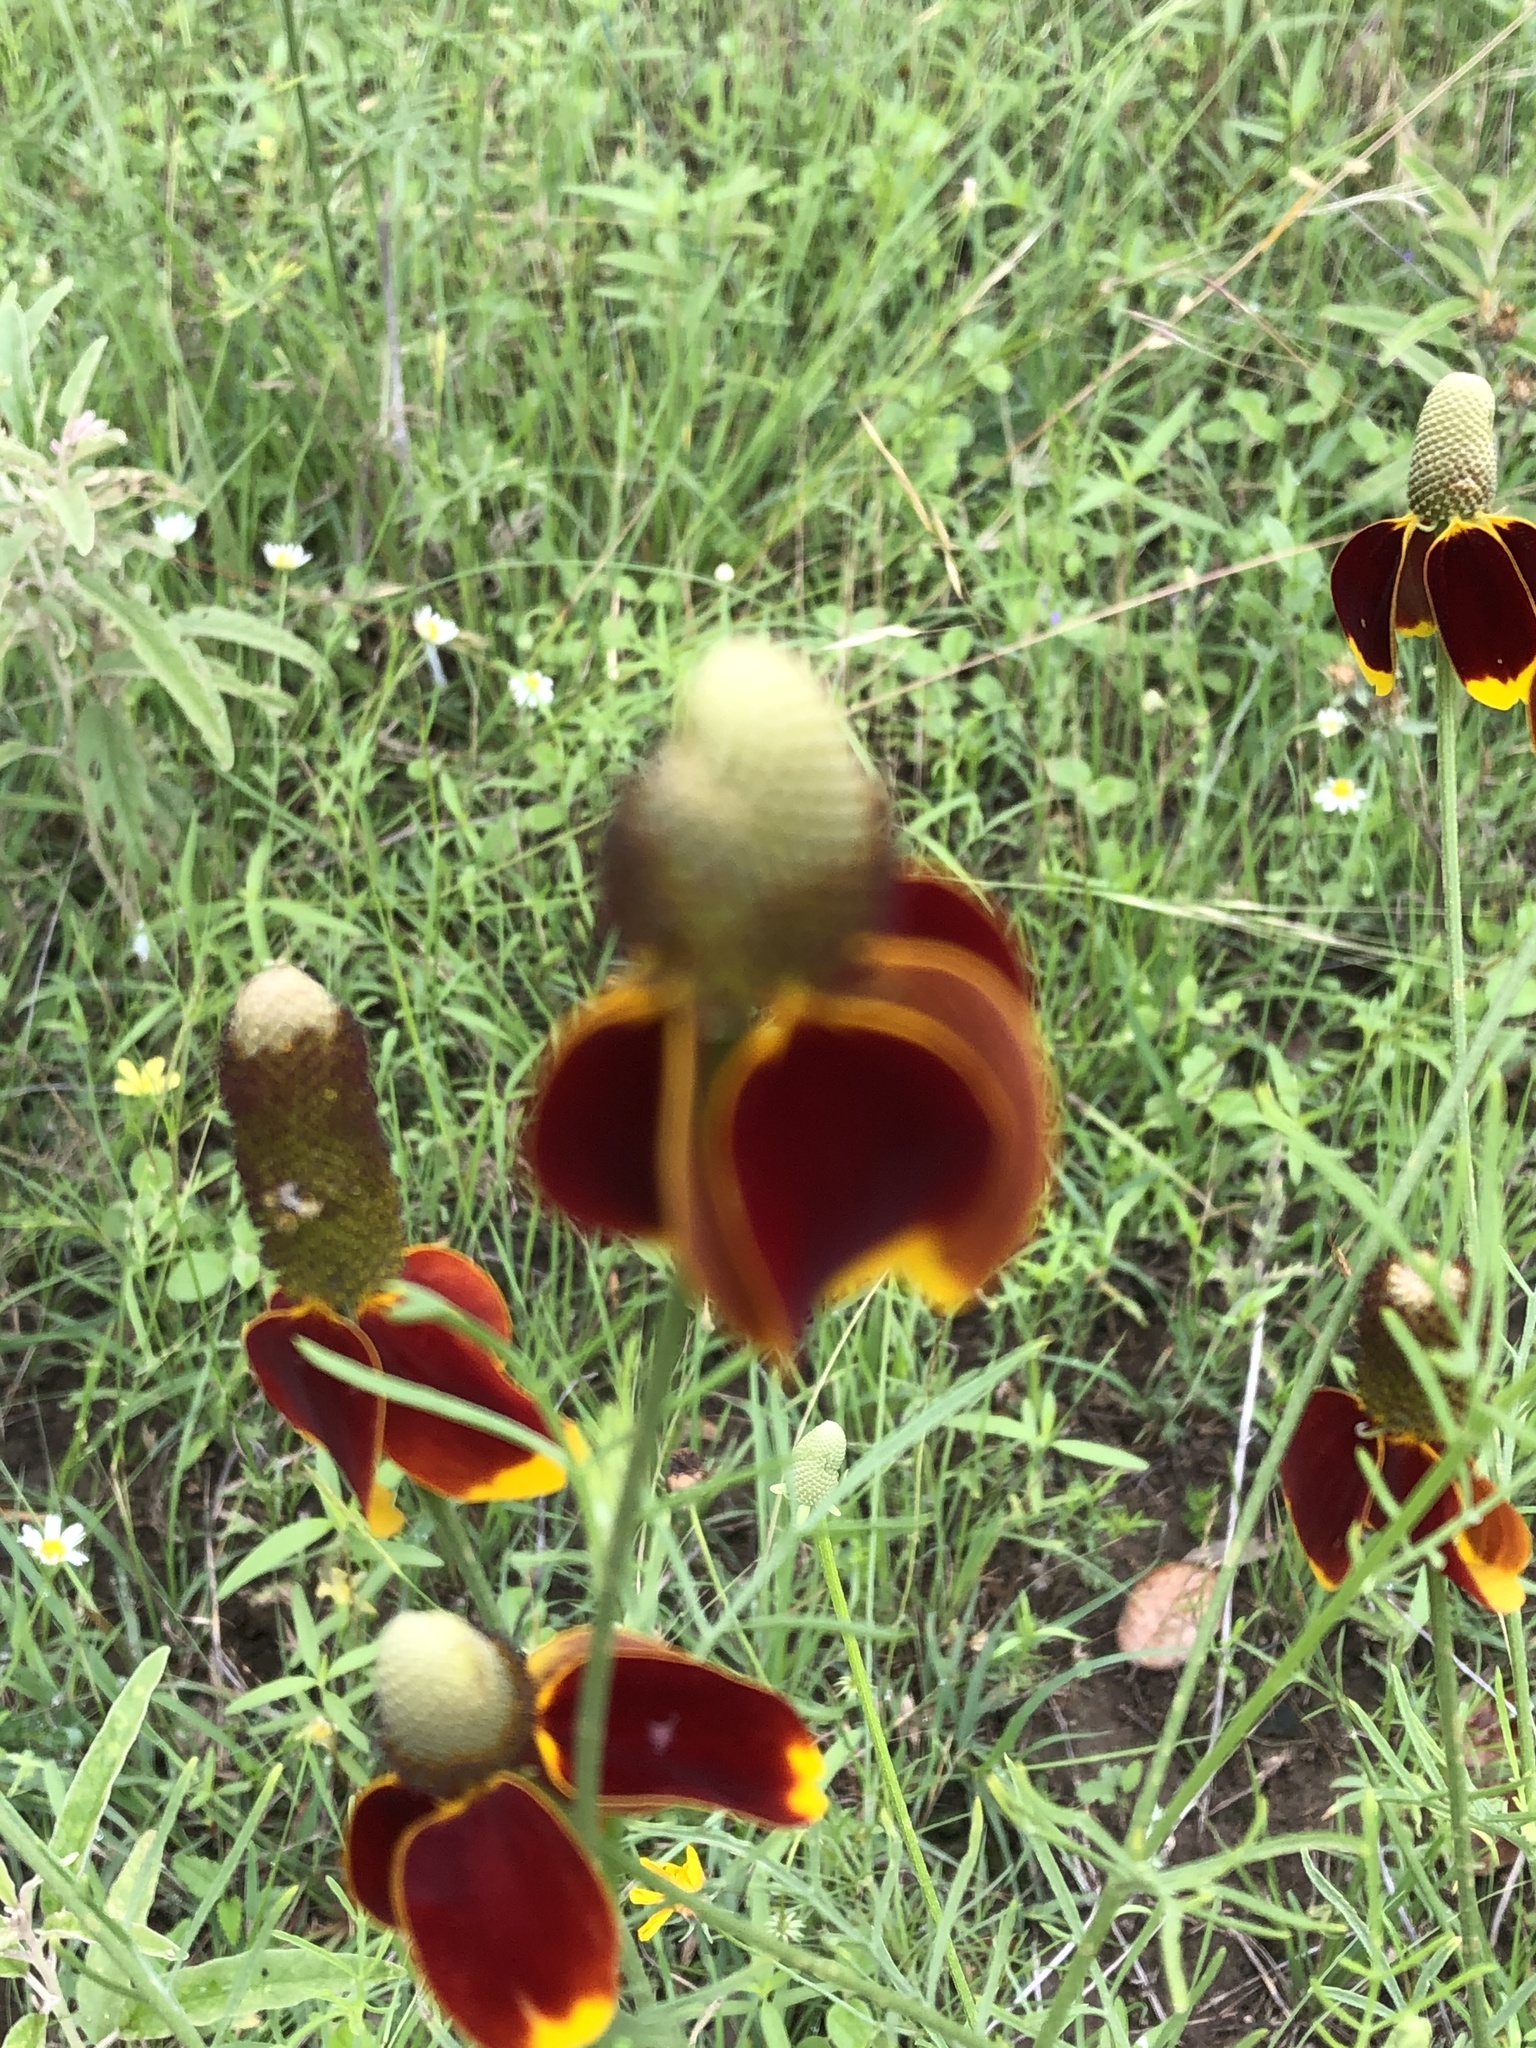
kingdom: Plantae
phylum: Tracheophyta
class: Magnoliopsida
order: Asterales
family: Asteraceae
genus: Ratibida
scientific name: Ratibida columnifera
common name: Prairie coneflower
